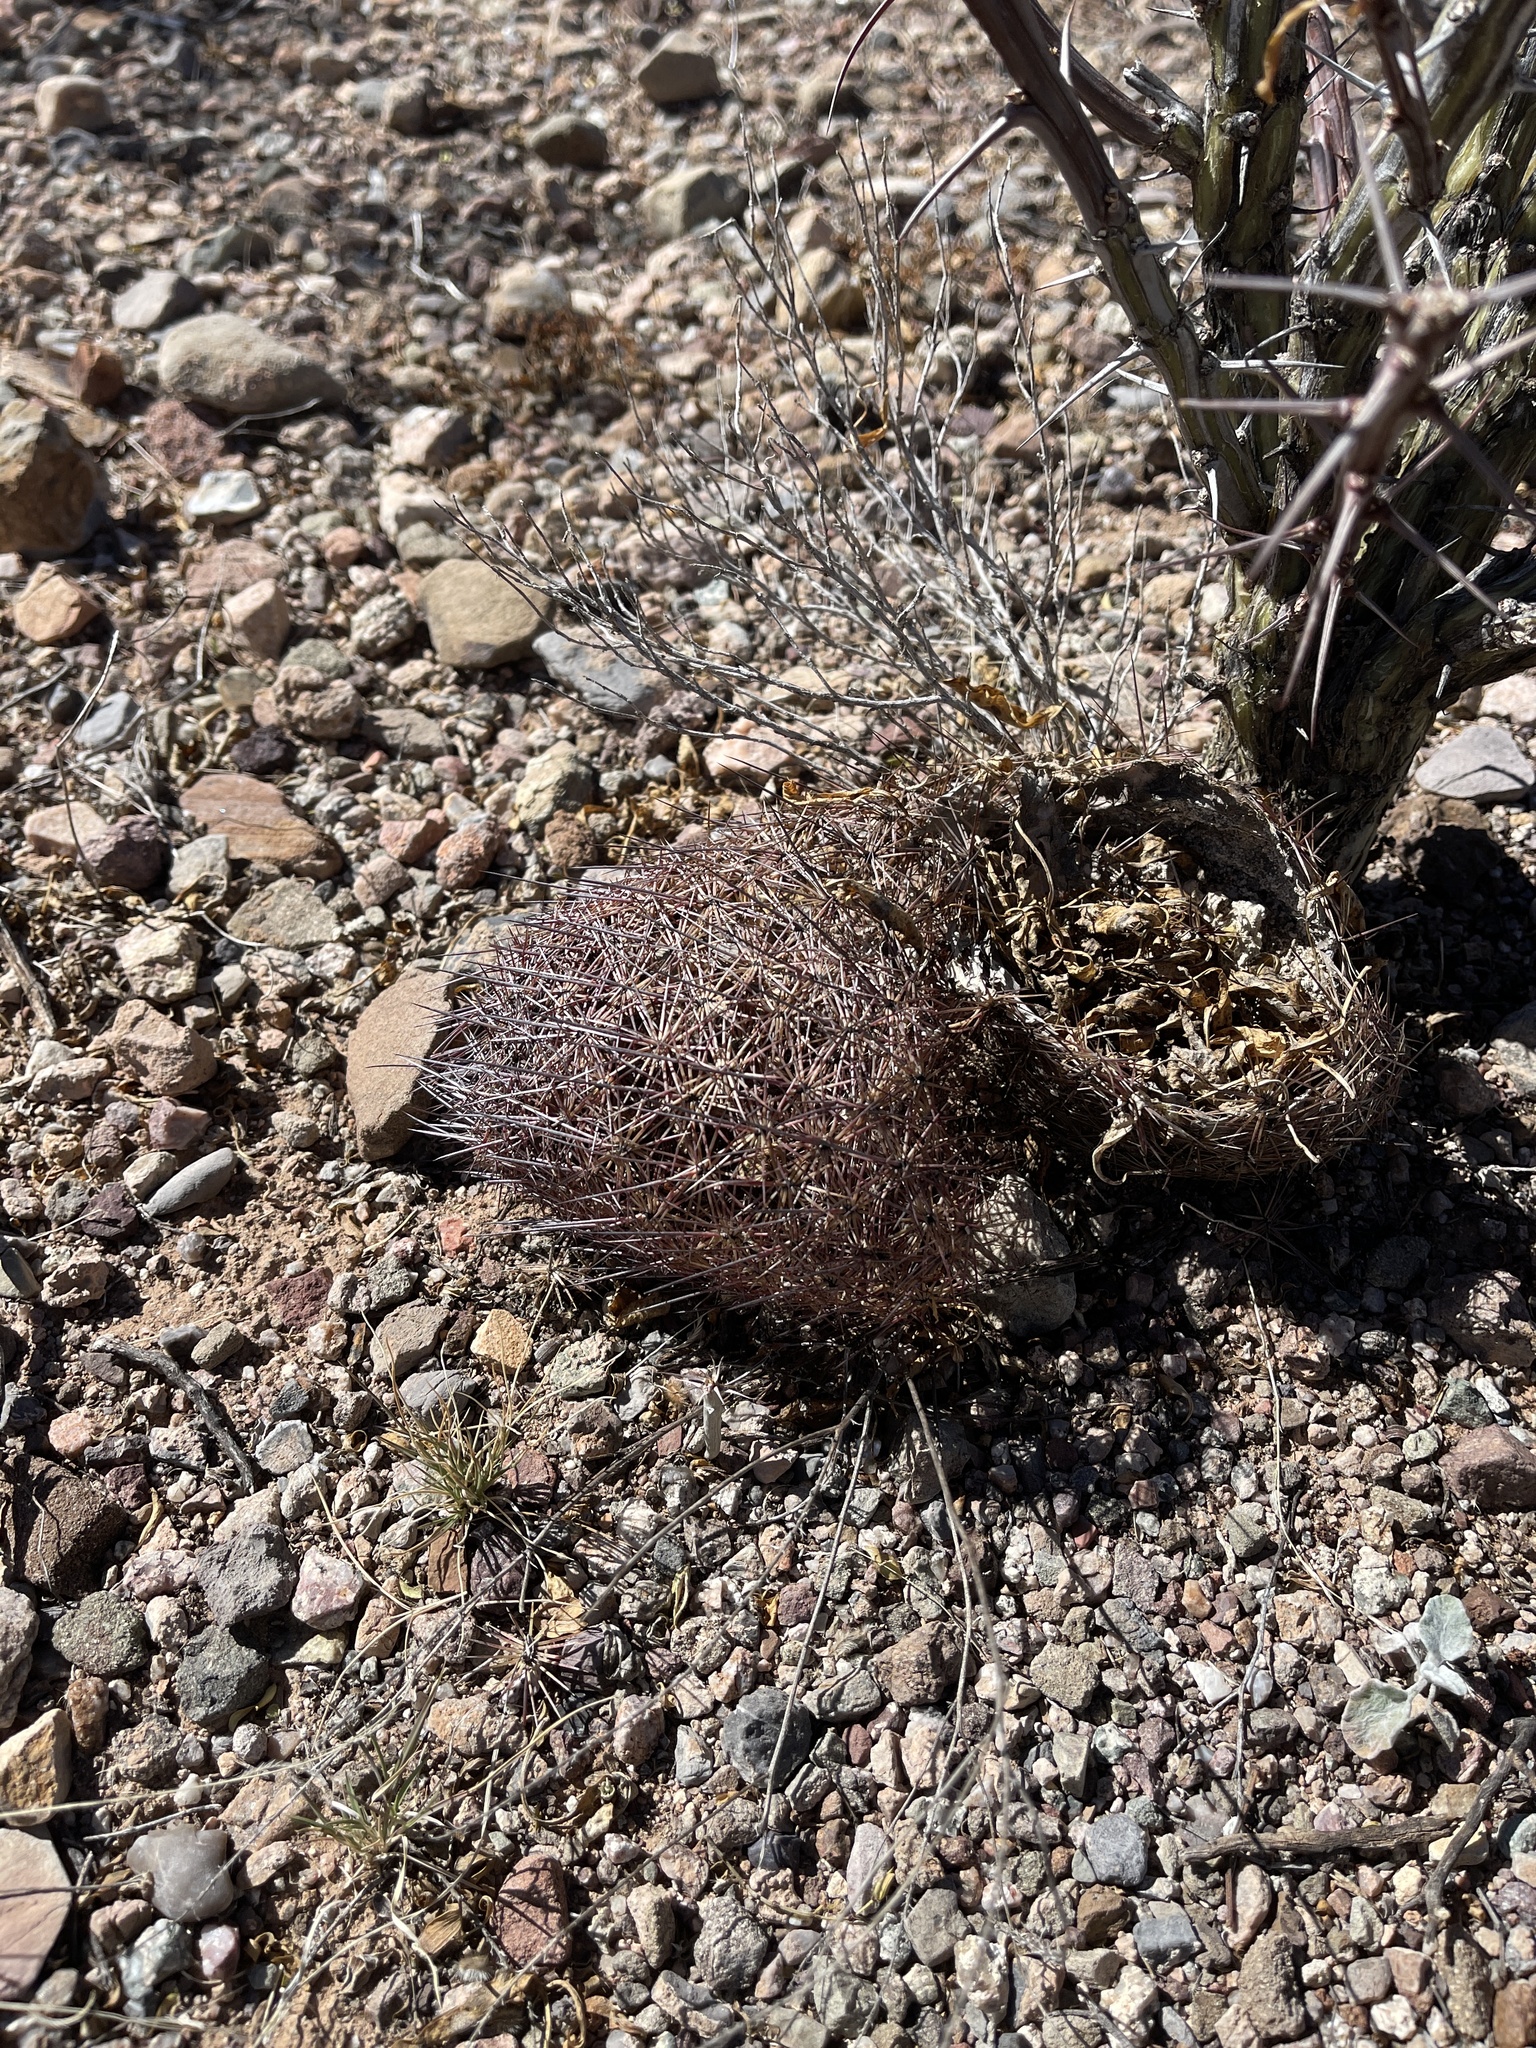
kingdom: Plantae
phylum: Tracheophyta
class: Magnoliopsida
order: Caryophyllales
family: Cactaceae
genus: Sclerocactus
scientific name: Sclerocactus johnsonii
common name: Eight-spine fishhook cactus
